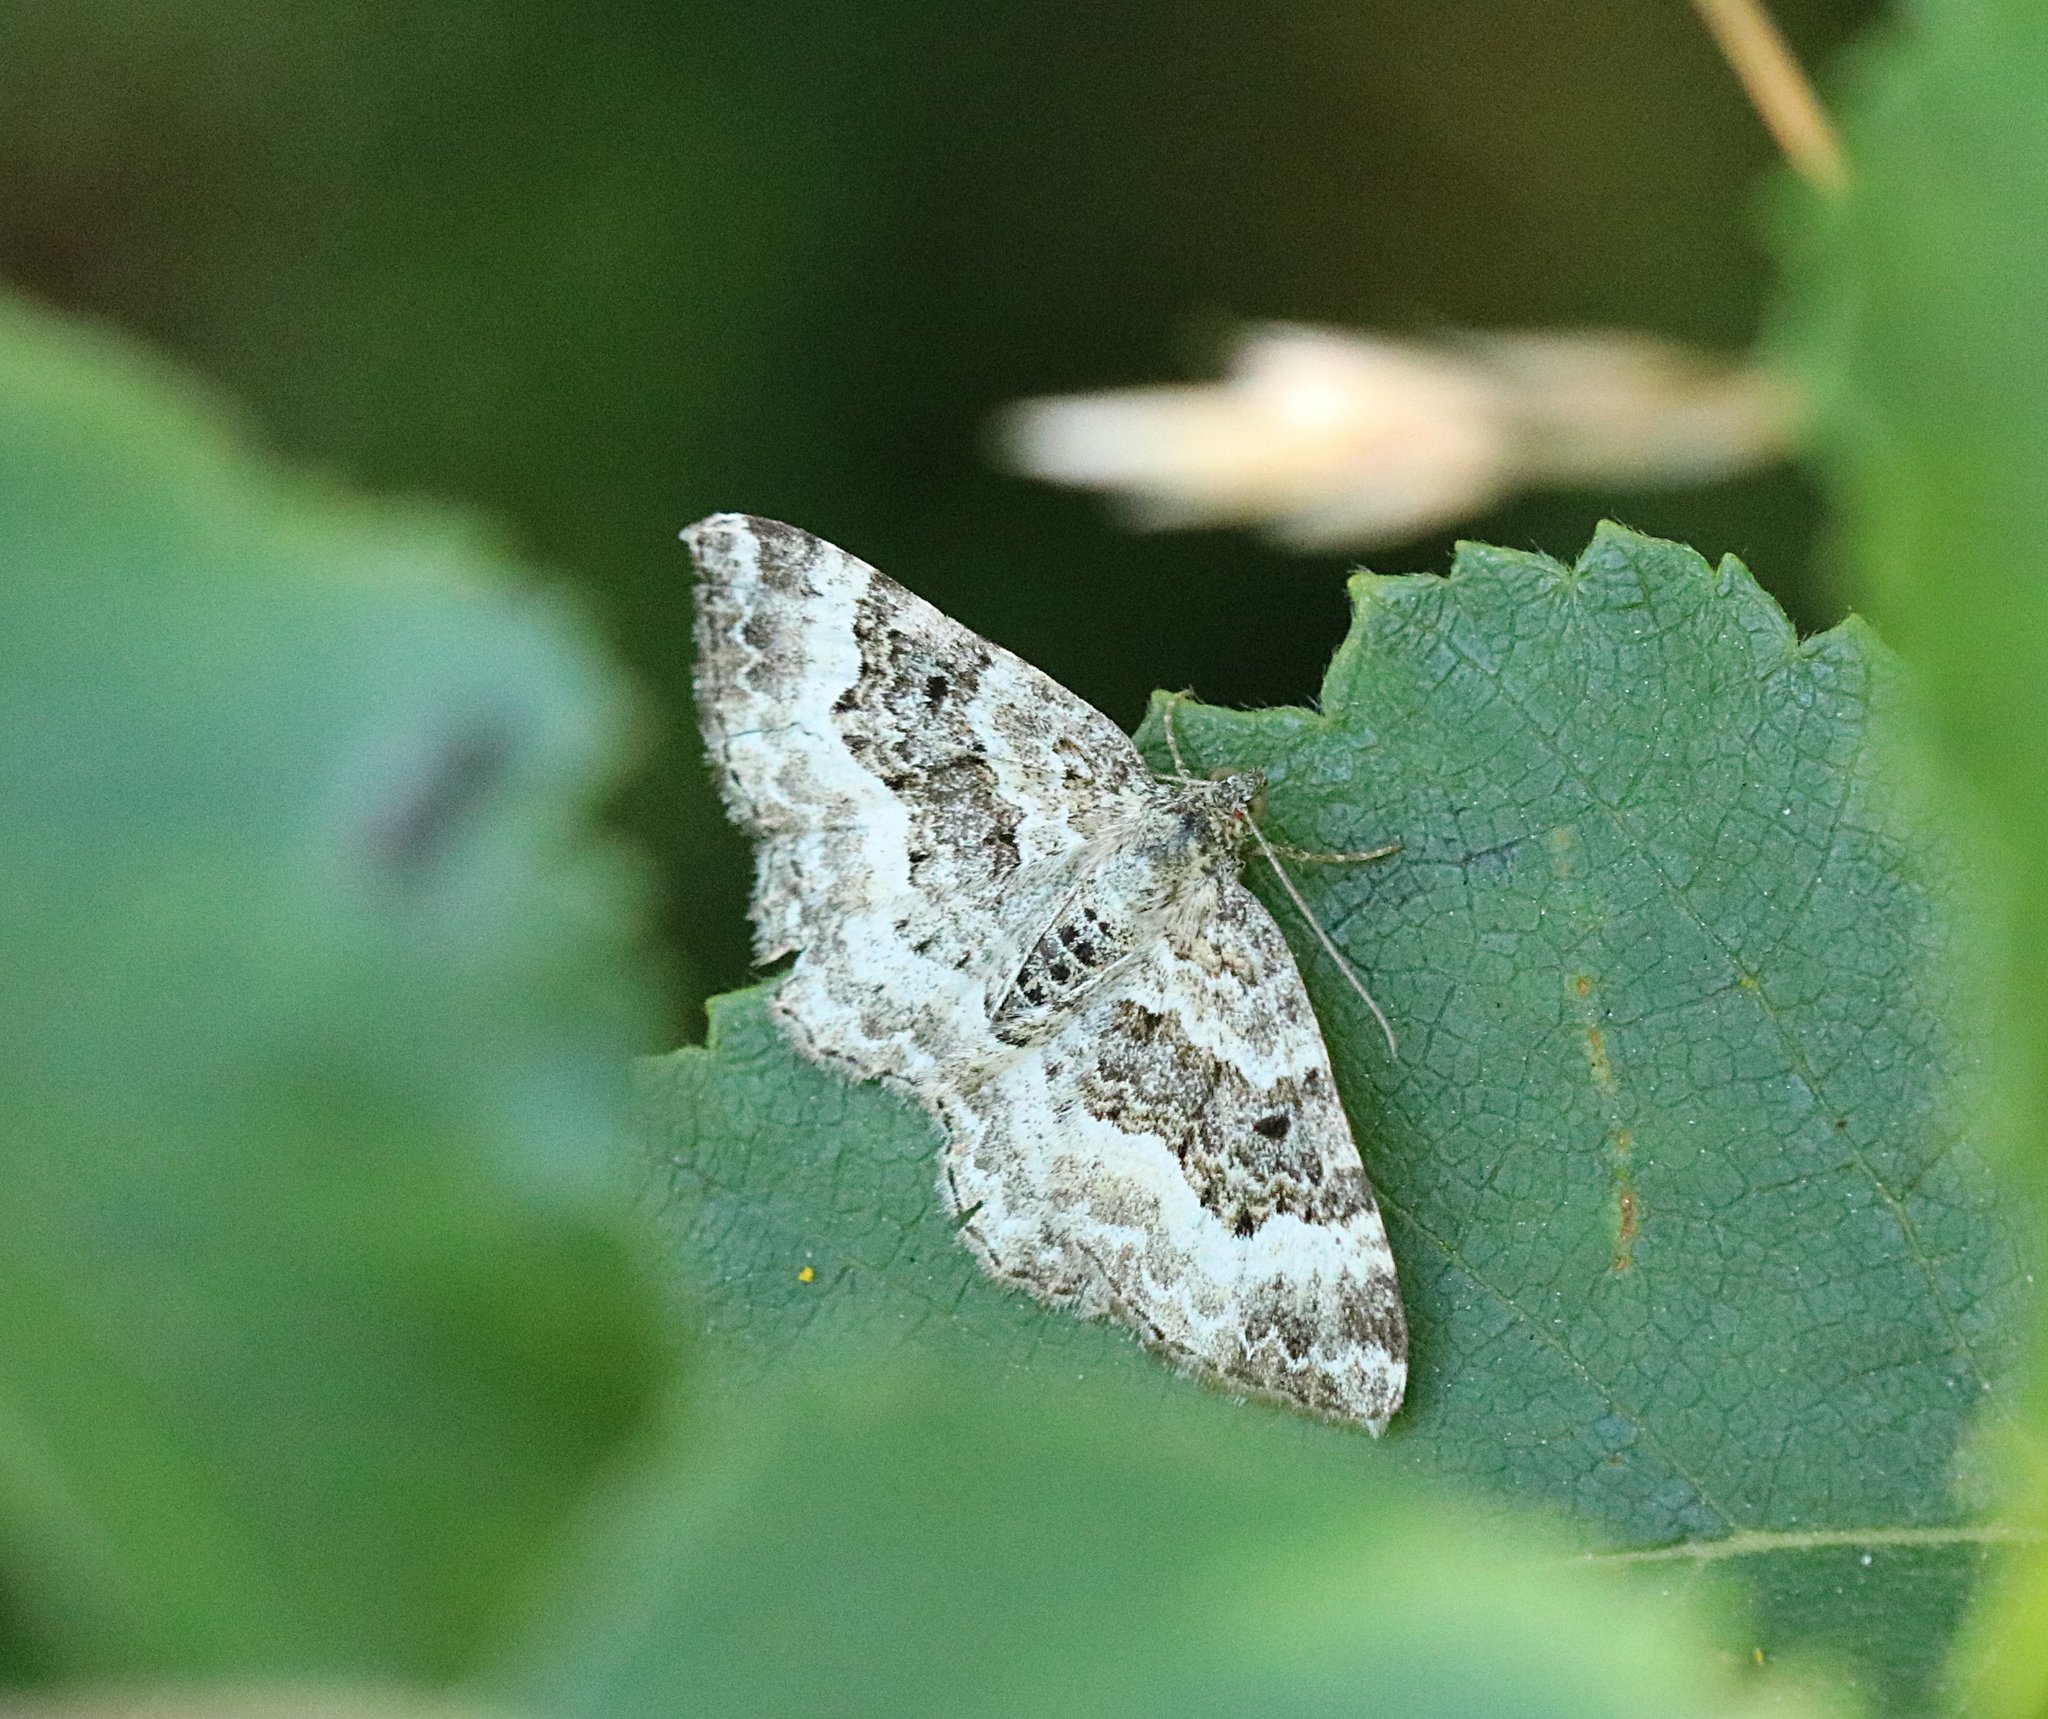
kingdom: Animalia
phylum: Arthropoda
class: Insecta
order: Lepidoptera
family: Geometridae
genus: Epirrhoe
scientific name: Epirrhoe alternata
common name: Common carpet
